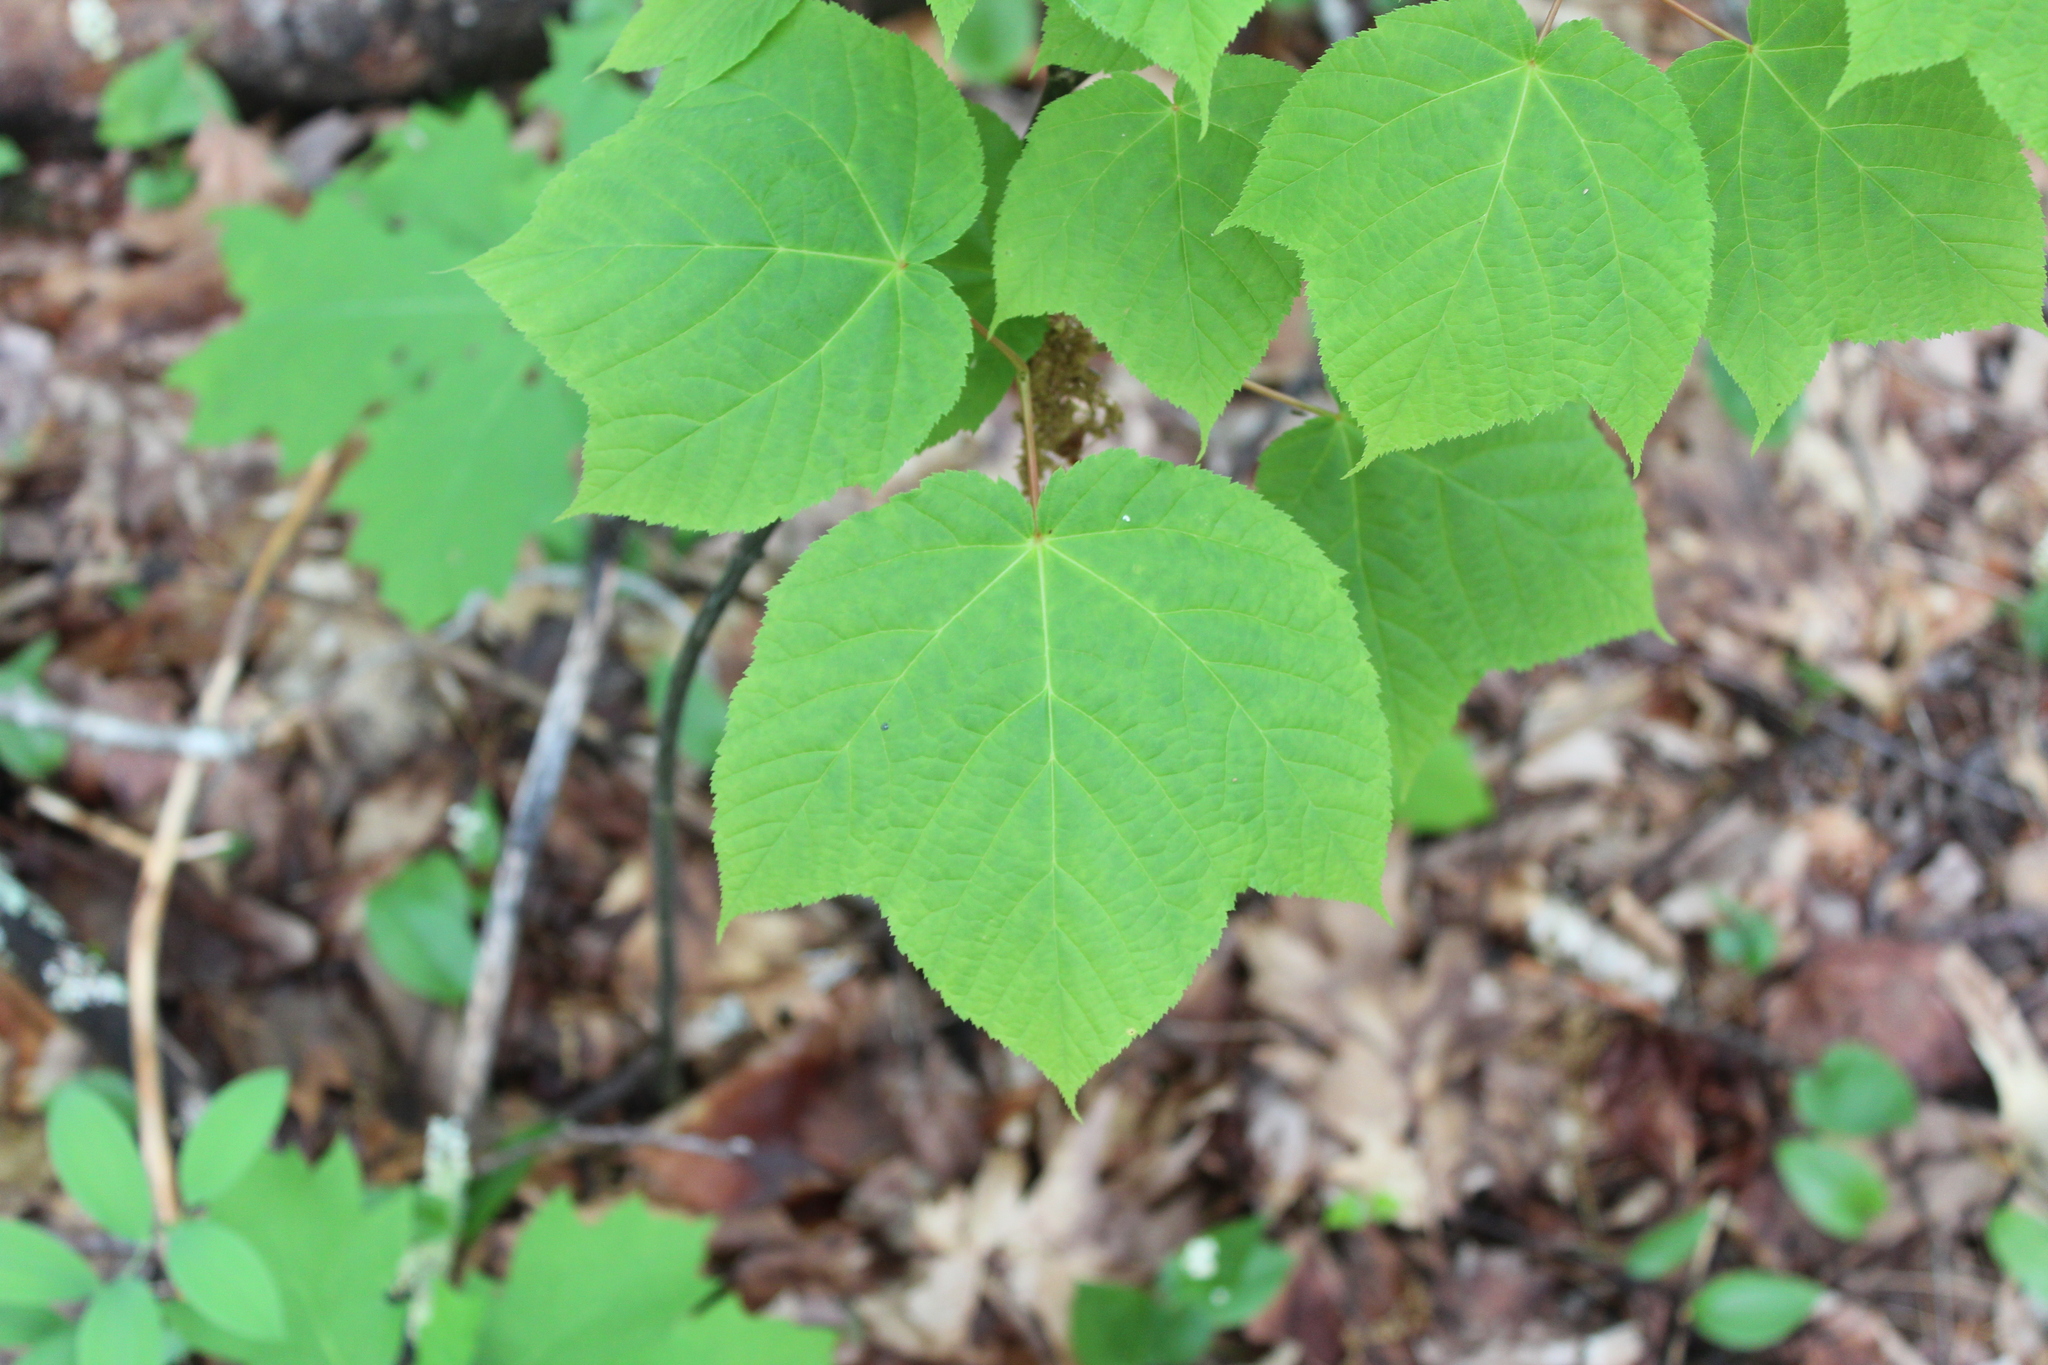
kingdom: Plantae
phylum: Tracheophyta
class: Magnoliopsida
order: Sapindales
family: Sapindaceae
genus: Acer
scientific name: Acer pensylvanicum
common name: Moosewood
